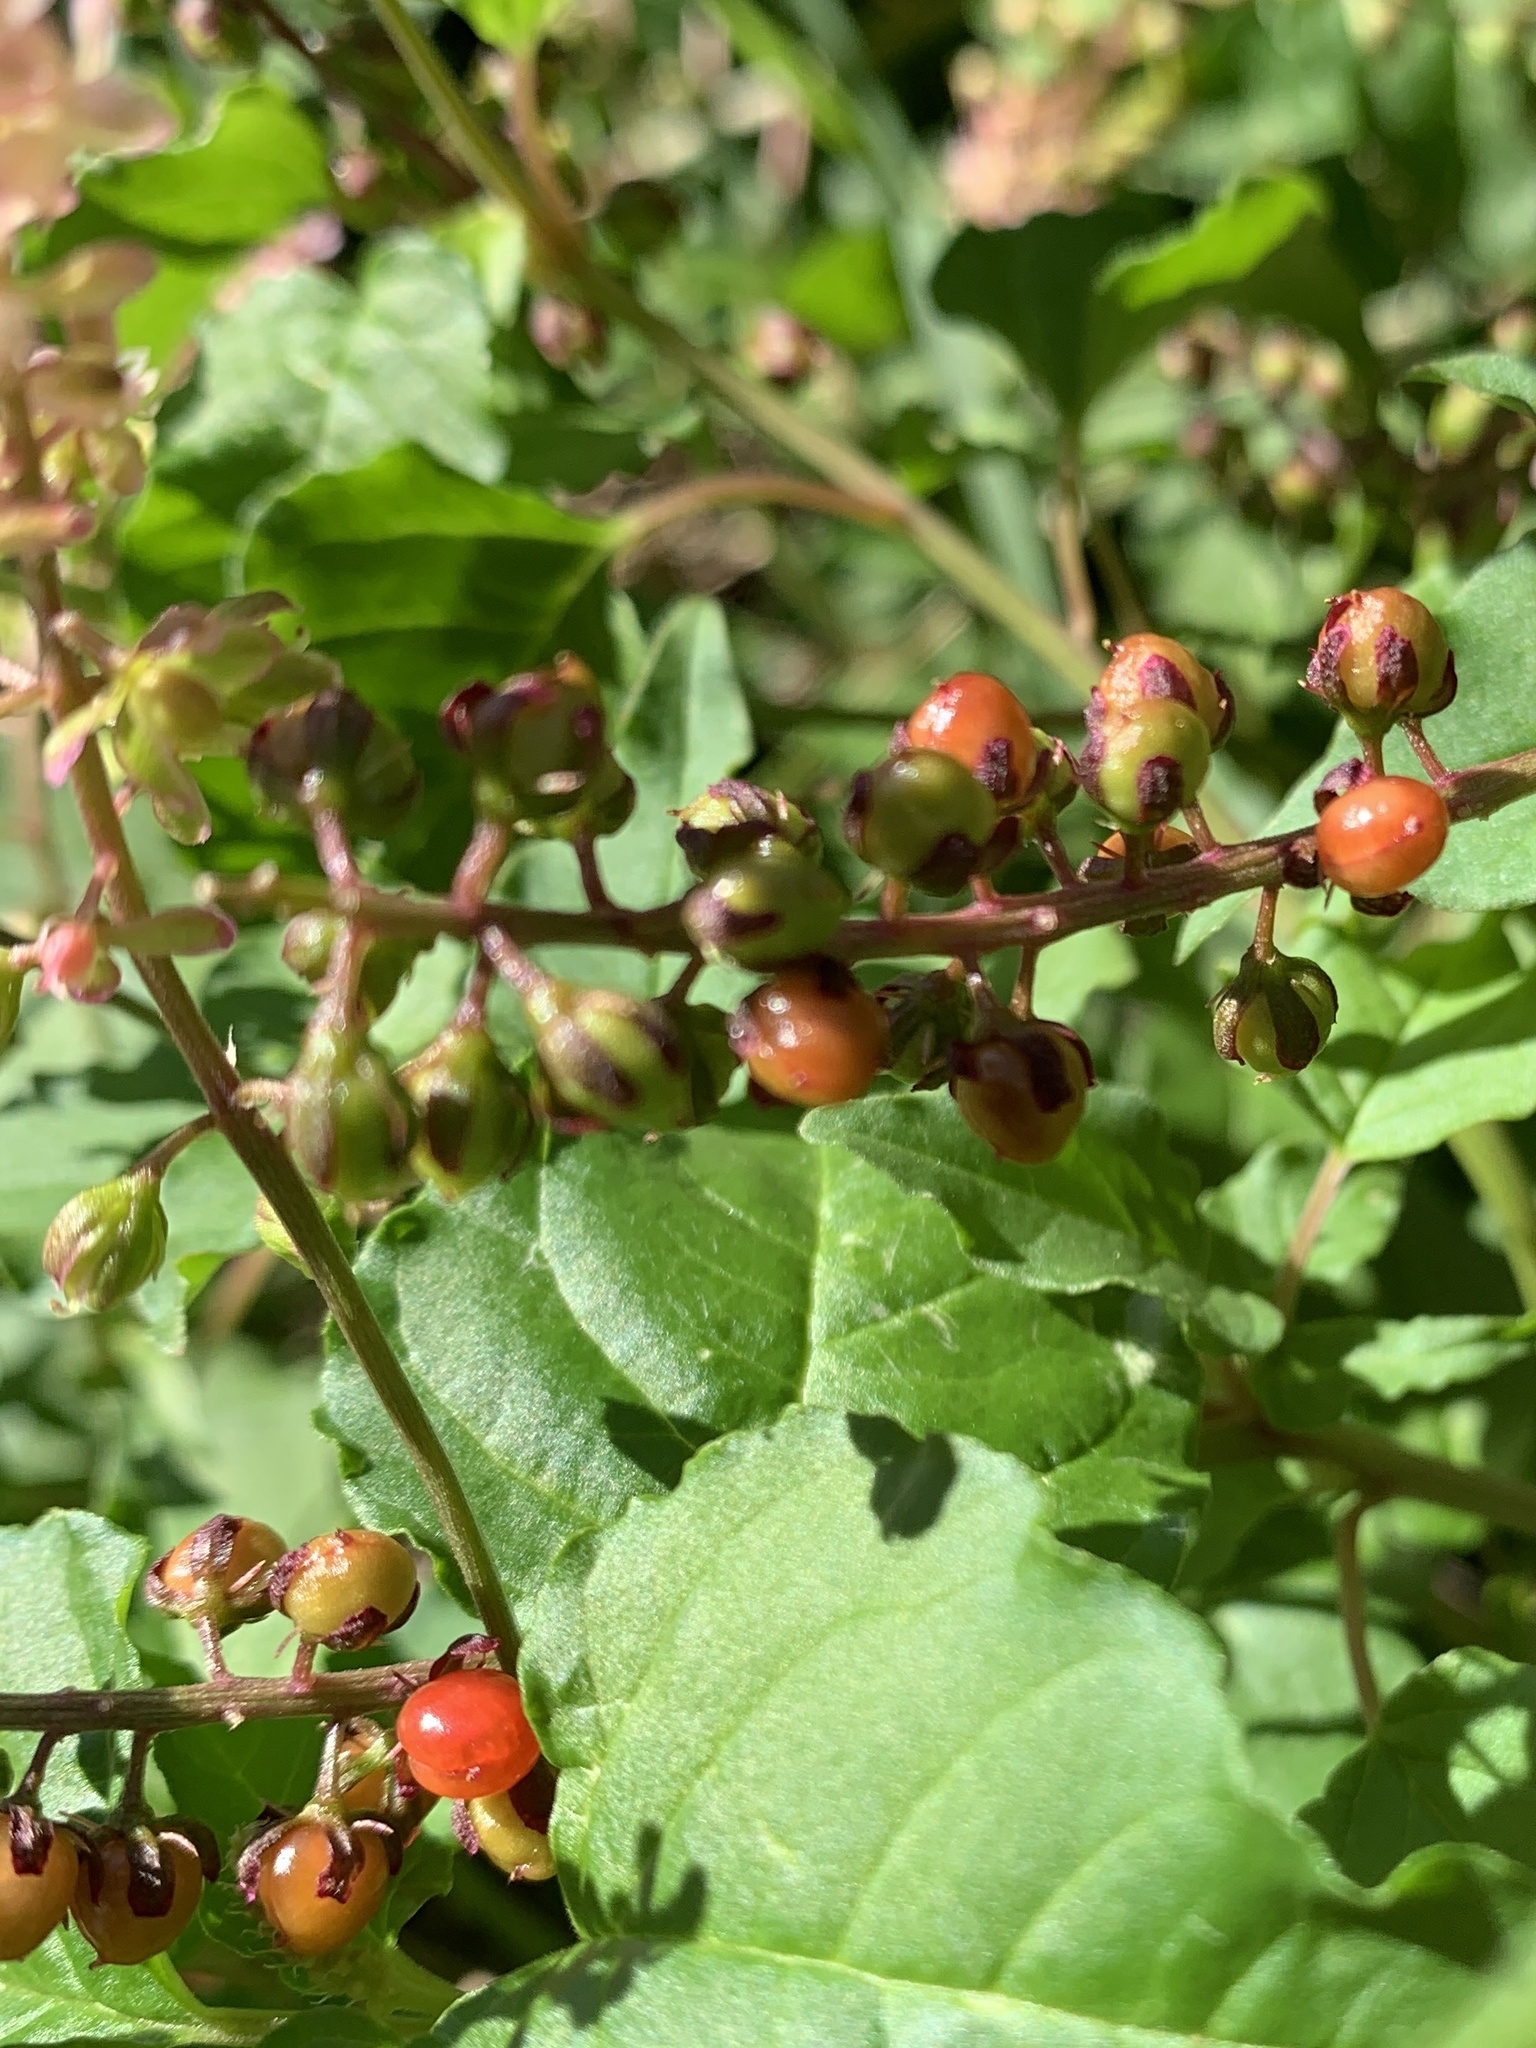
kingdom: Plantae
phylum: Tracheophyta
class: Magnoliopsida
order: Caryophyllales
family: Phytolaccaceae
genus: Rivina
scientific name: Rivina humilis
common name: Rougeplant
